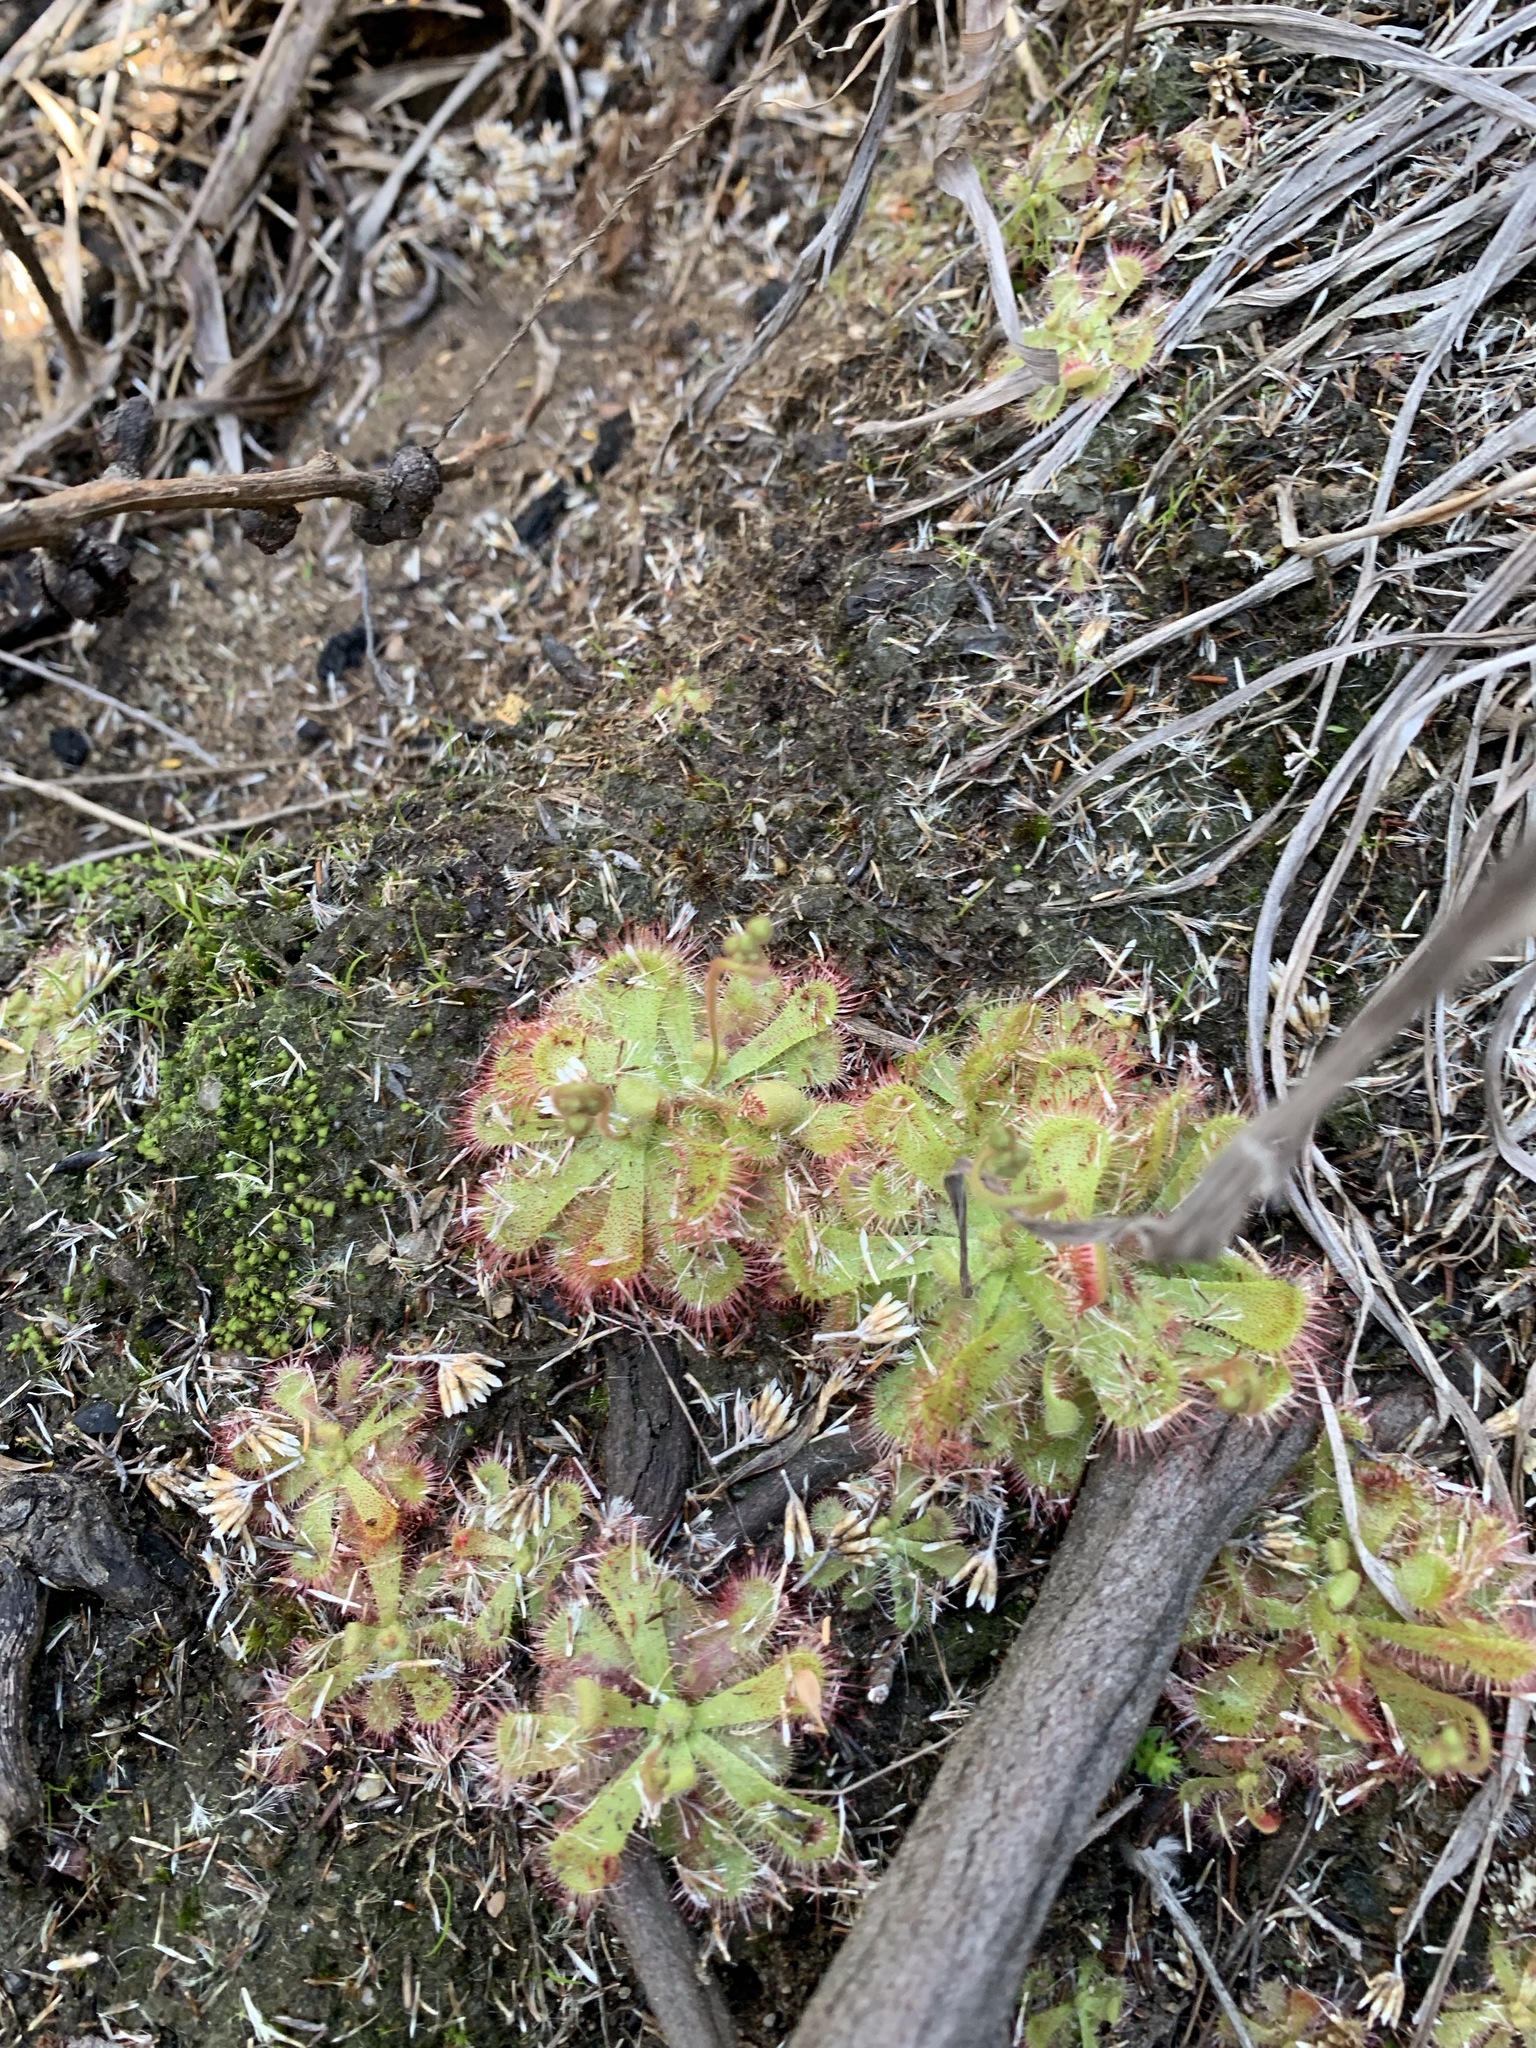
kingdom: Plantae
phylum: Tracheophyta
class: Magnoliopsida
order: Caryophyllales
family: Droseraceae
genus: Drosera
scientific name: Drosera trinervia
